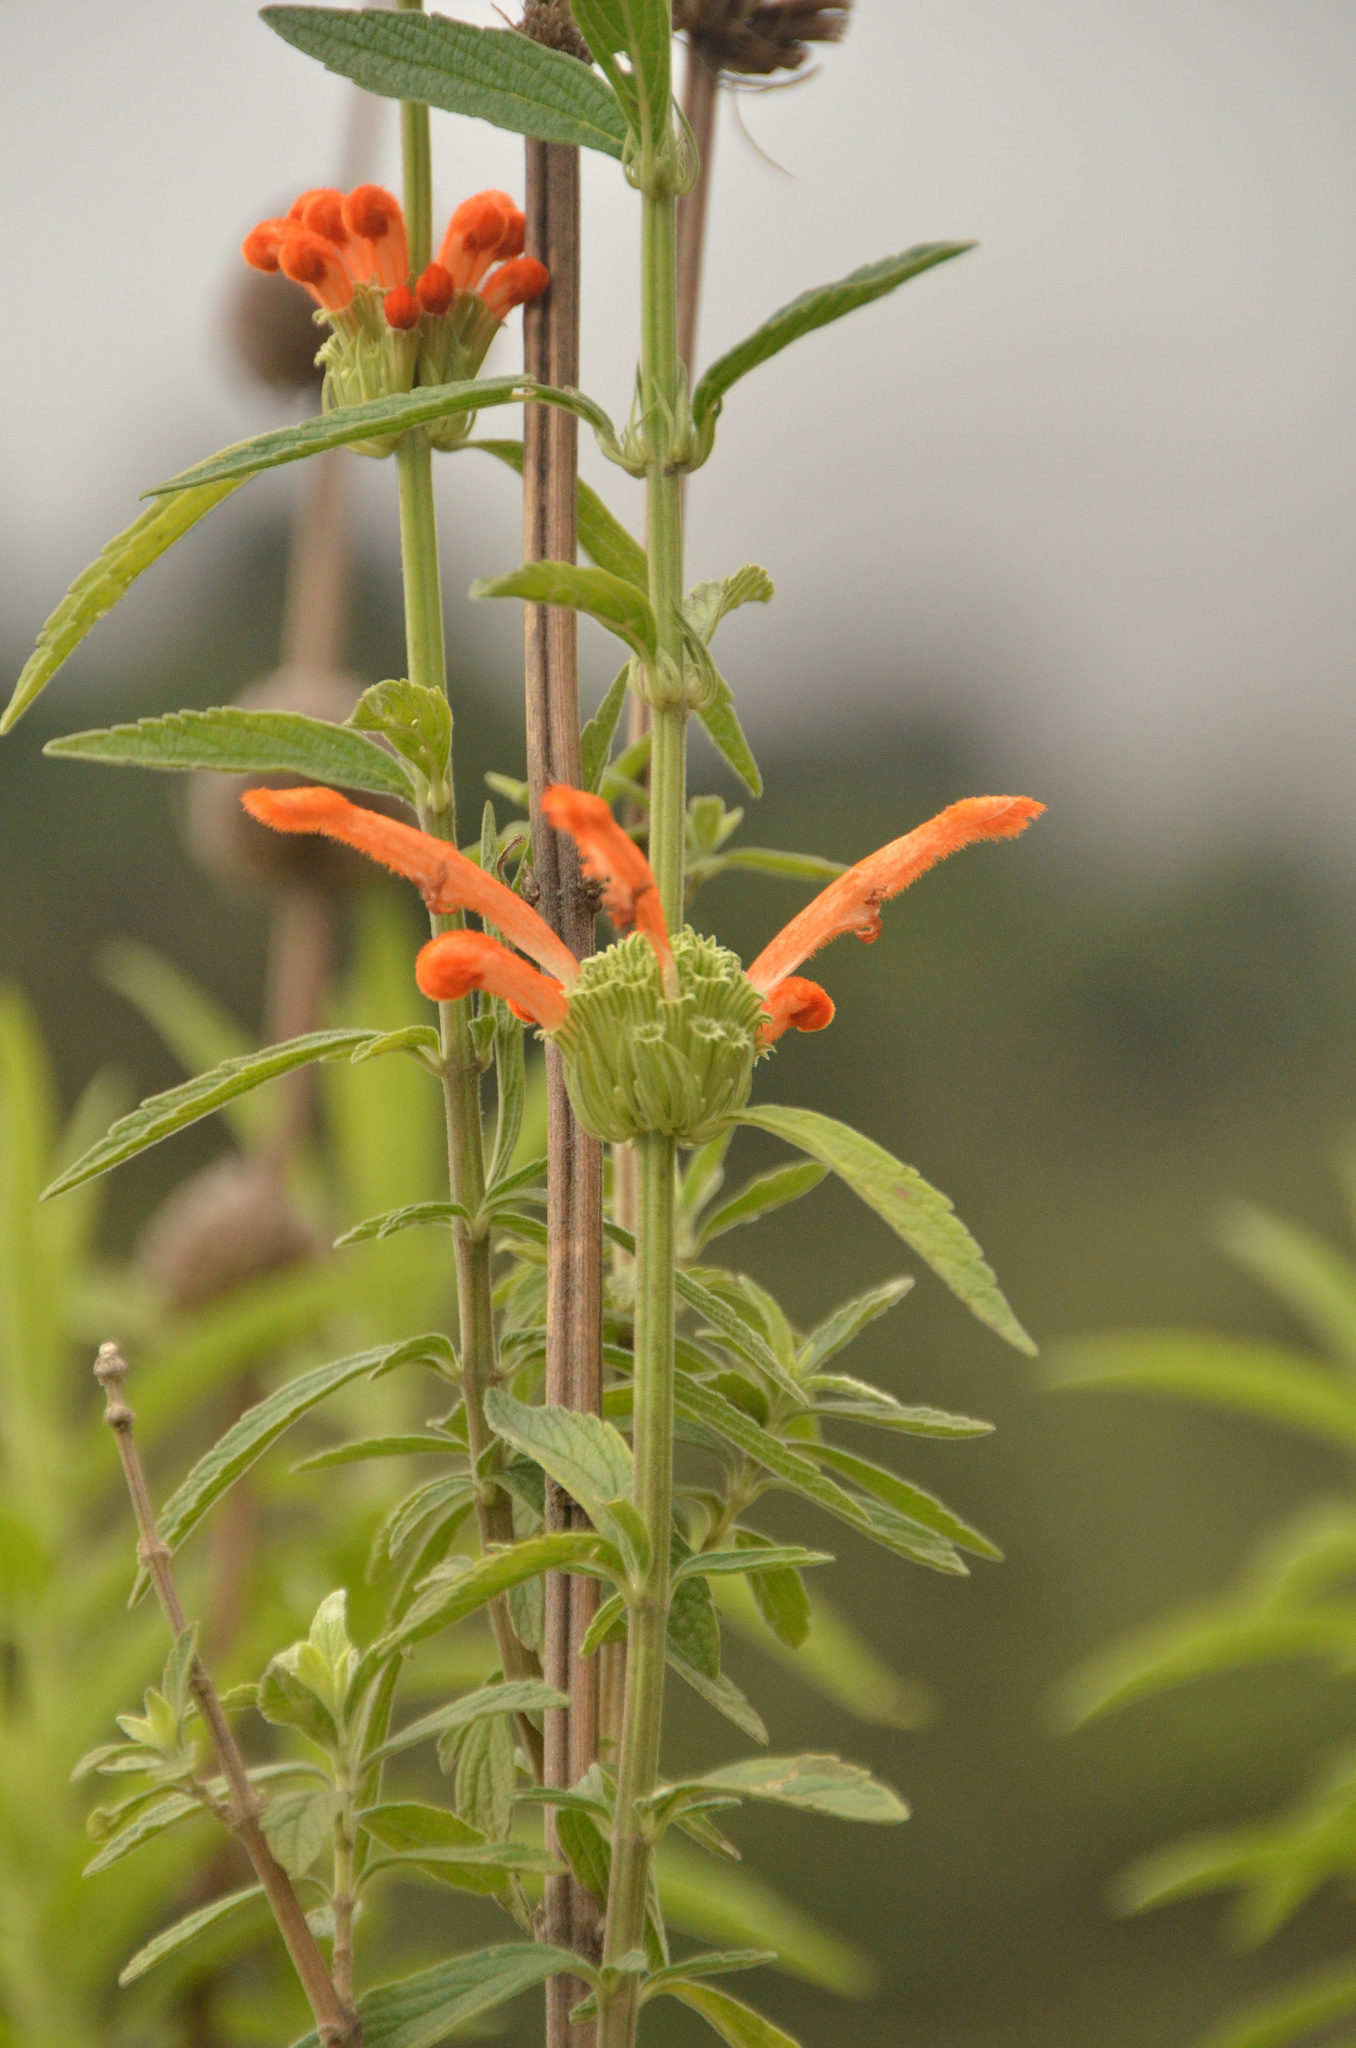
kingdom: Plantae
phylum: Tracheophyta
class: Magnoliopsida
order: Lamiales
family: Lamiaceae
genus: Leonotis
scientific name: Leonotis leonurus
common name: Lion's ear
